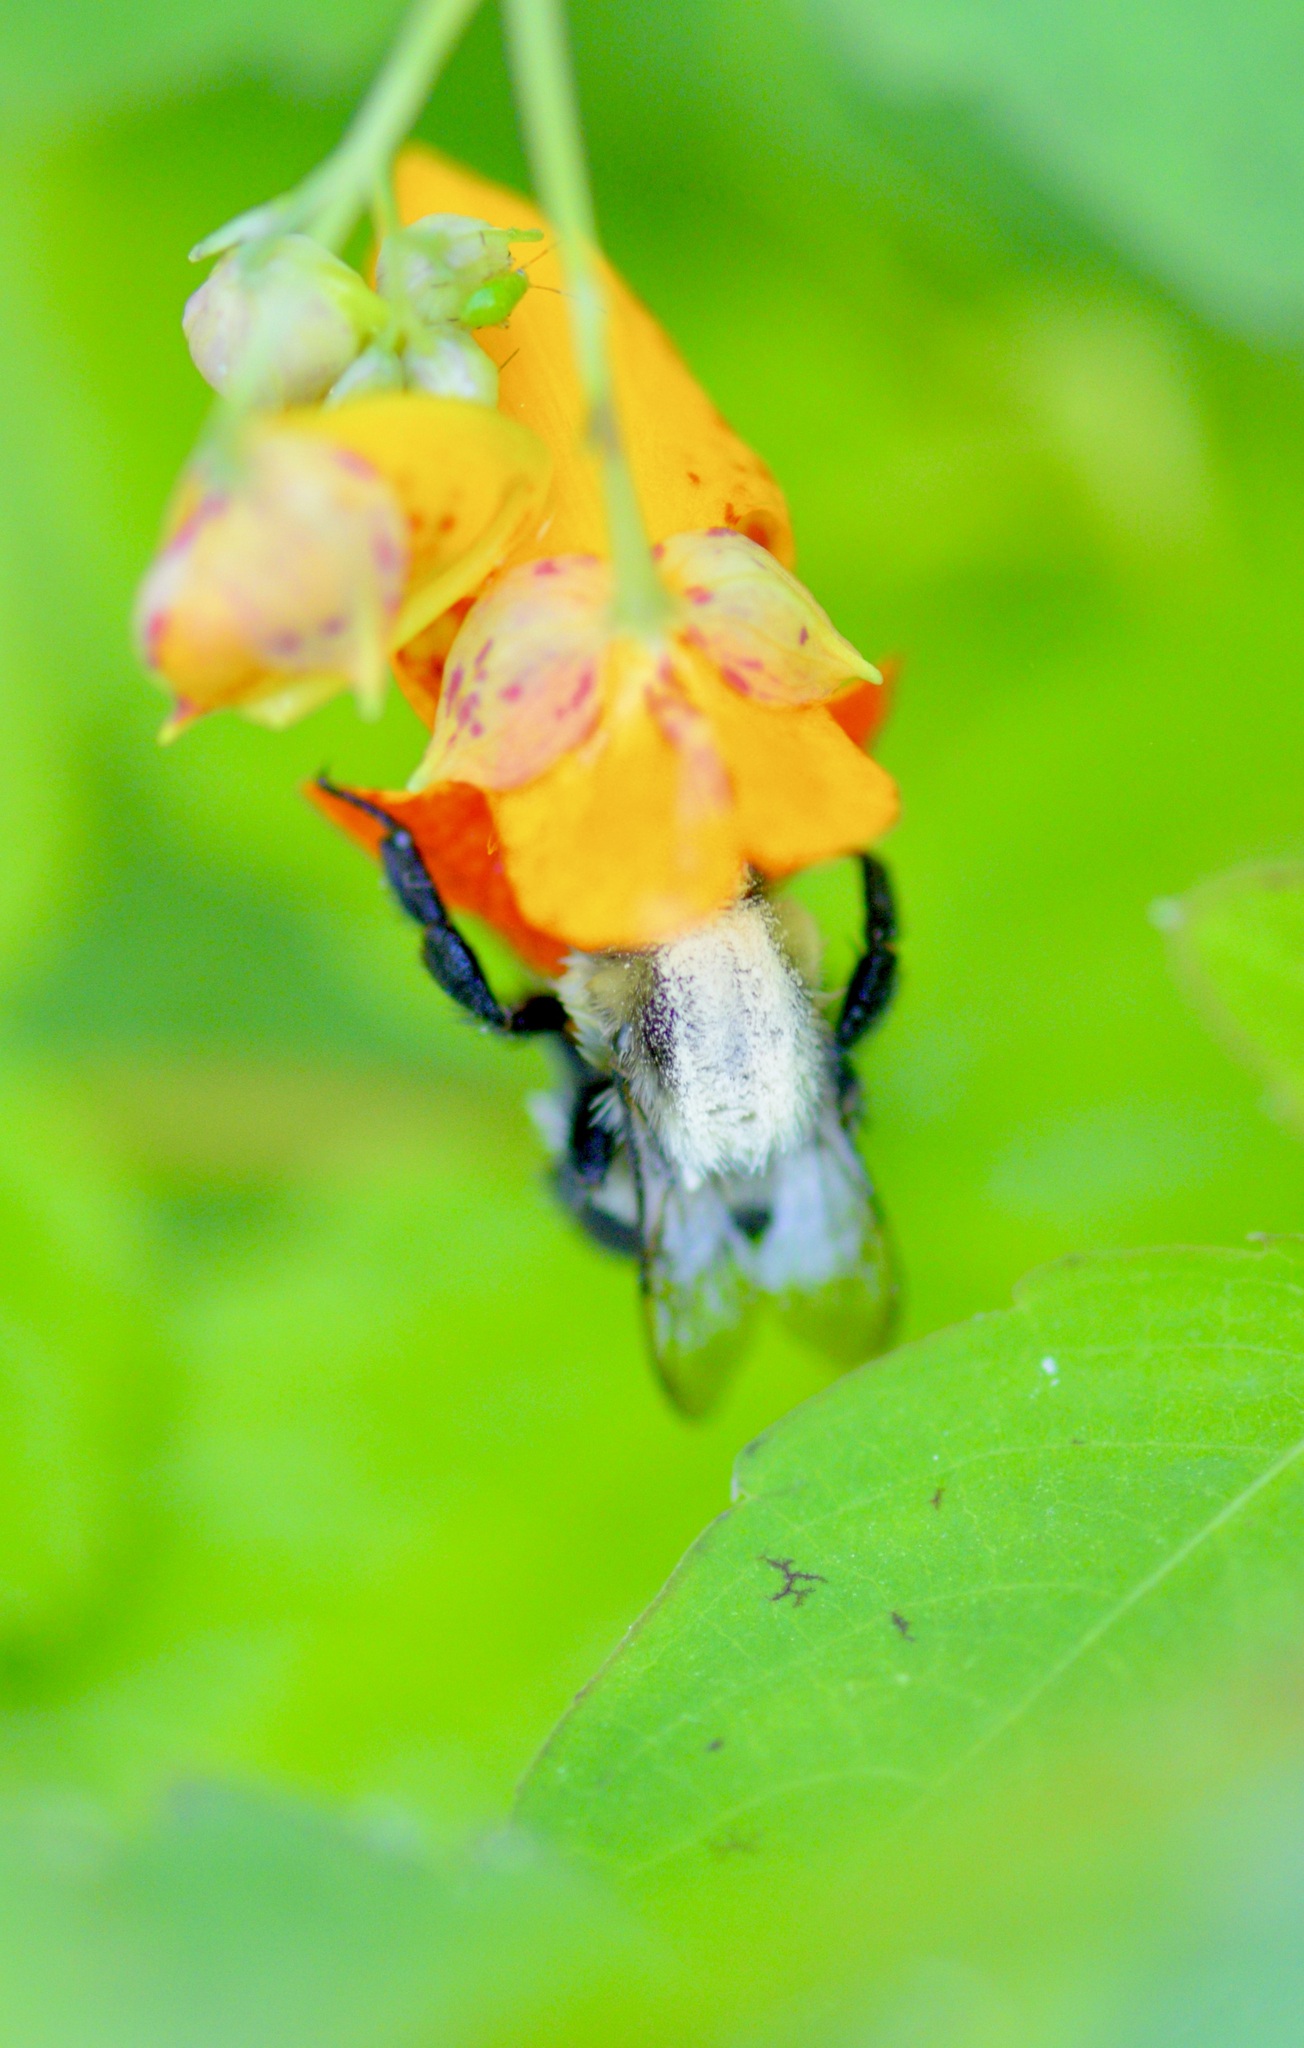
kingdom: Animalia
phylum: Arthropoda
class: Insecta
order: Hymenoptera
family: Apidae
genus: Bombus
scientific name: Bombus impatiens
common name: Common eastern bumble bee
